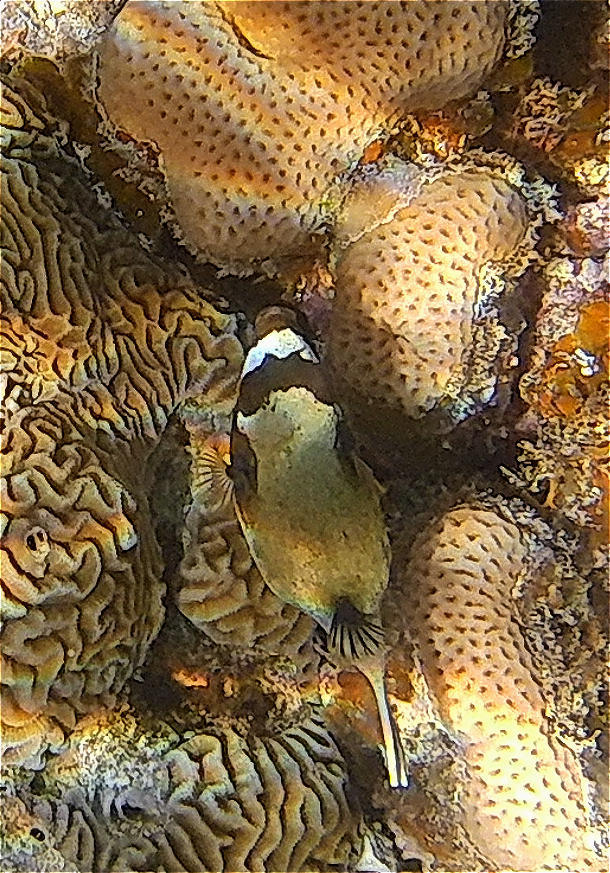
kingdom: Animalia
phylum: Chordata
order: Tetraodontiformes
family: Tetraodontidae
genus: Arothron
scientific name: Arothron diadematus
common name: Masked puffer
